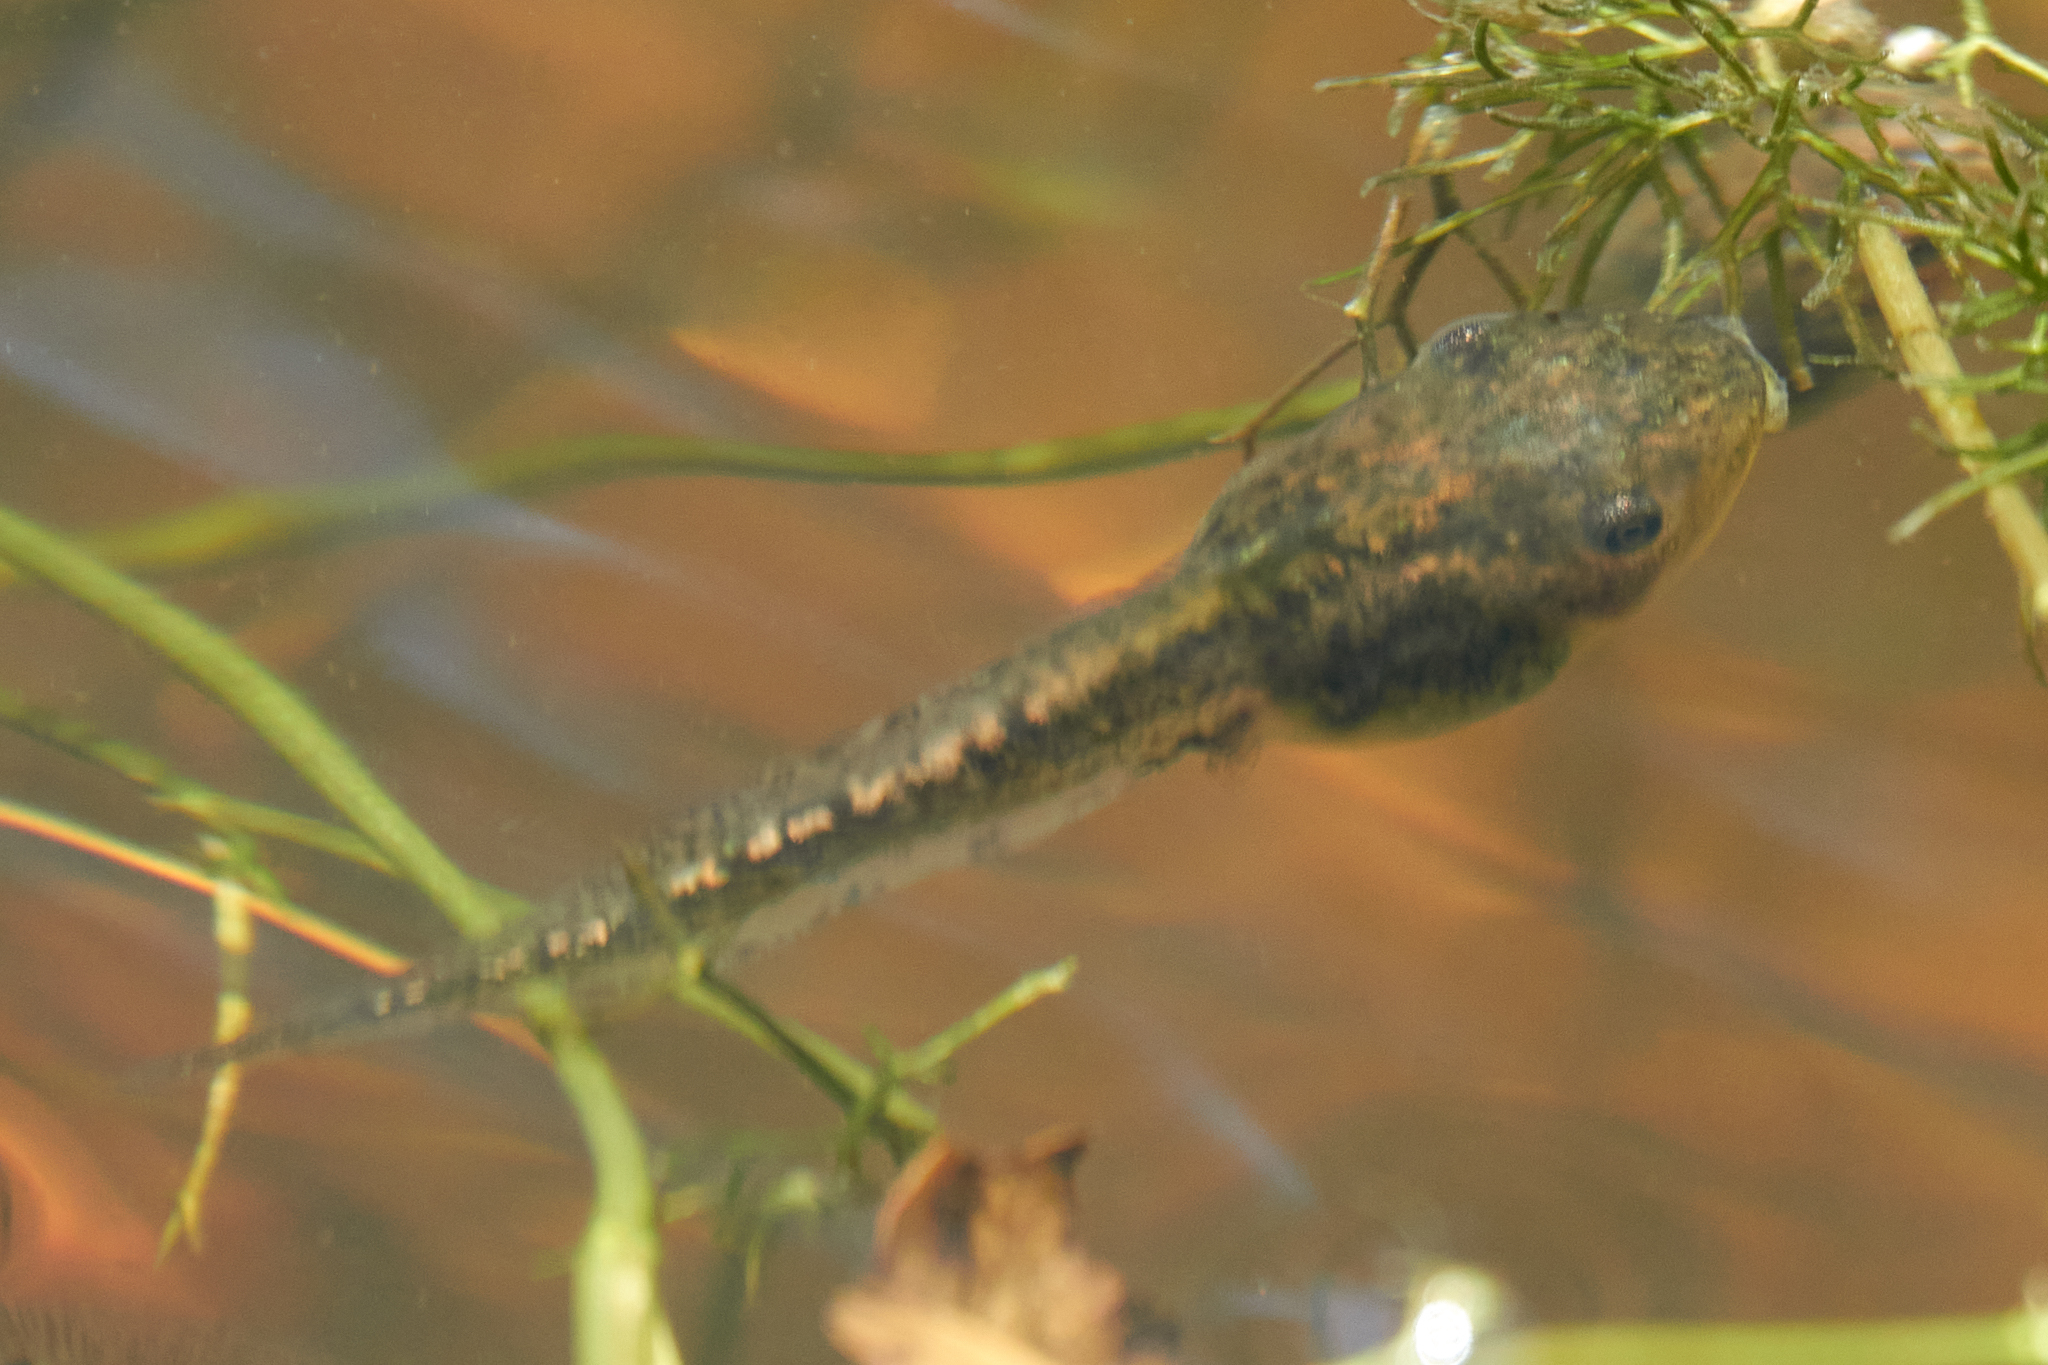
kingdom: Animalia
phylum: Chordata
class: Amphibia
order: Anura
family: Hylidae
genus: Pseudacris
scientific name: Pseudacris regilla
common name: Pacific chorus frog
